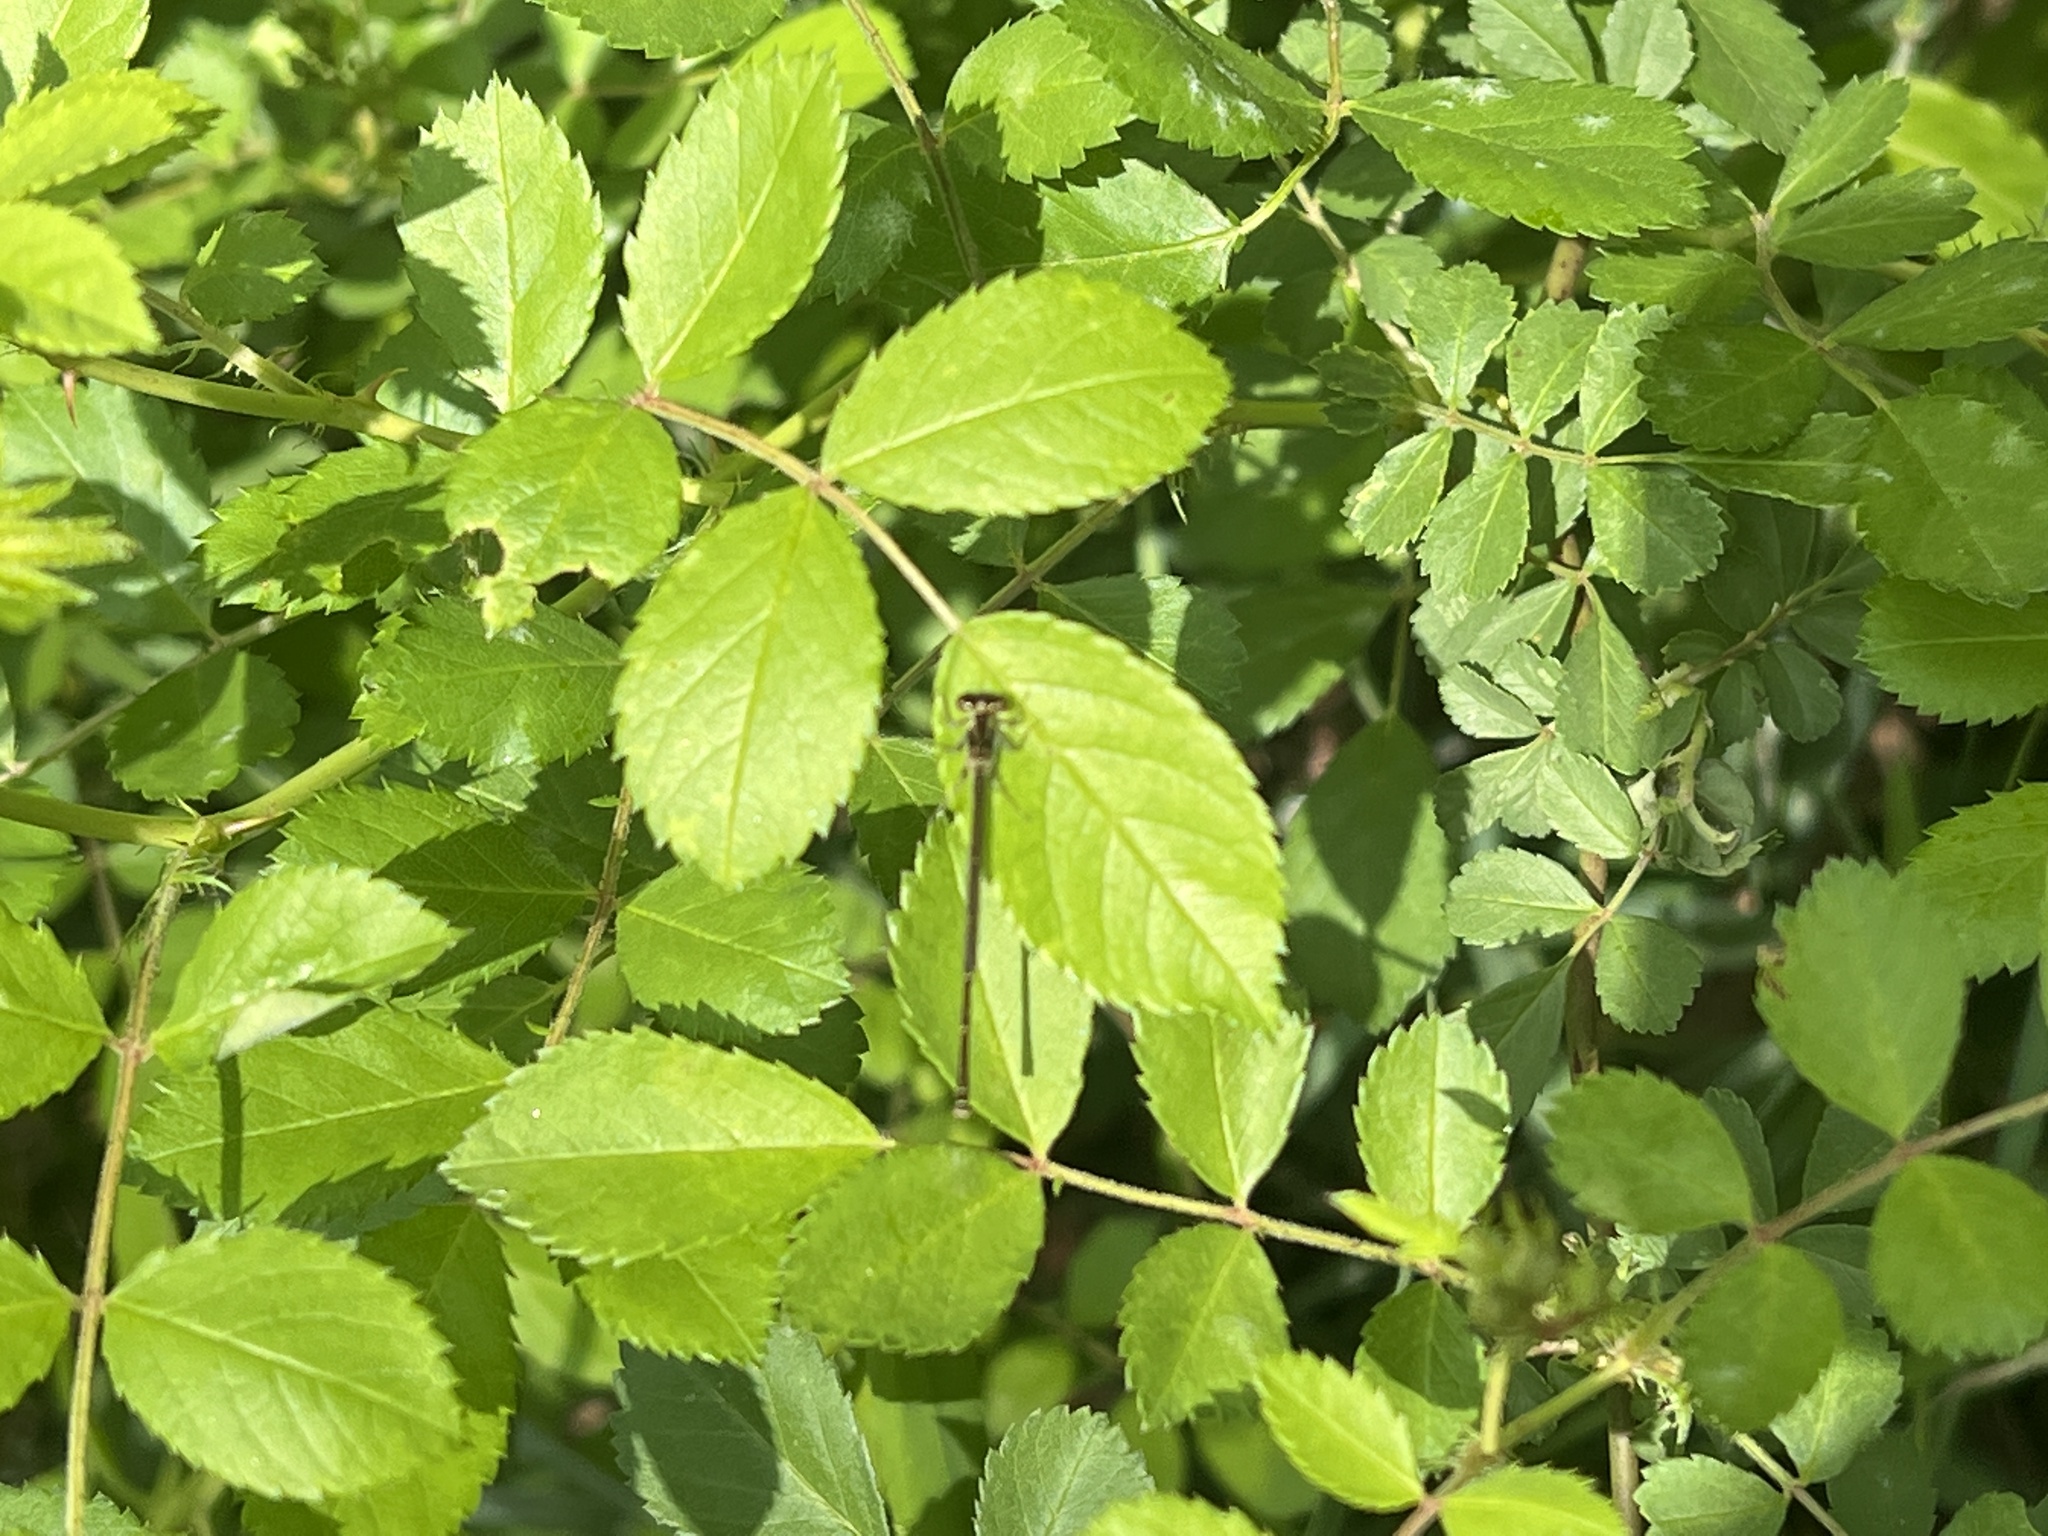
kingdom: Plantae
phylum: Tracheophyta
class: Magnoliopsida
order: Rosales
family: Rosaceae
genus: Rosa
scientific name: Rosa multiflora
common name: Multiflora rose
